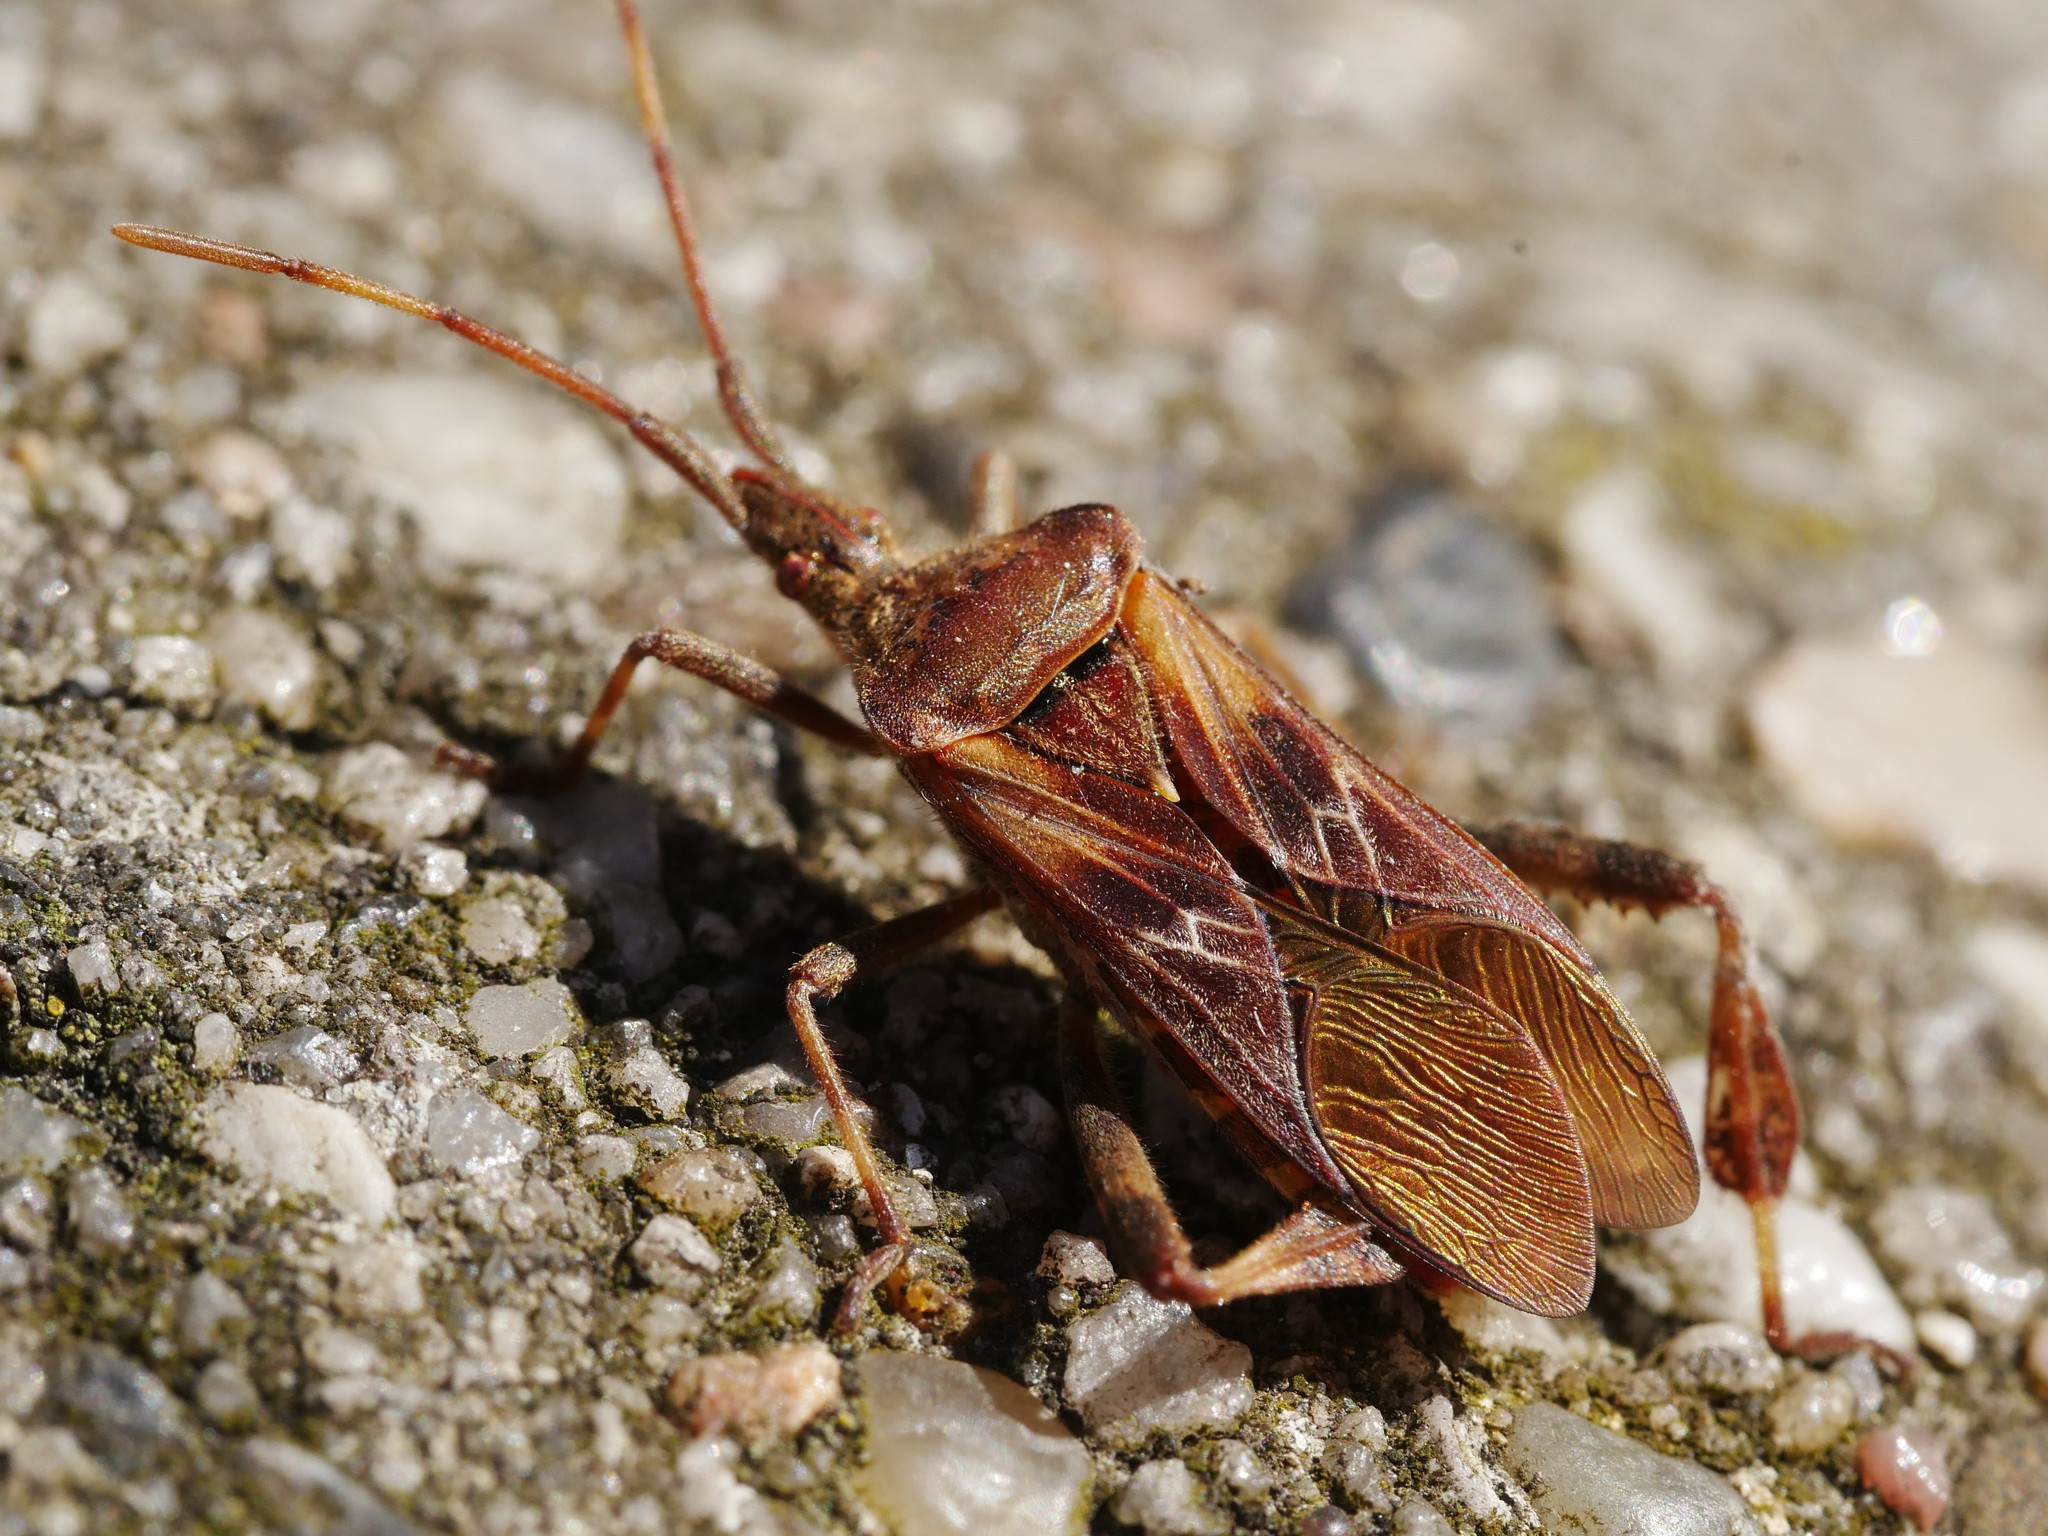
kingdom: Animalia
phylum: Arthropoda
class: Insecta
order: Hemiptera
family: Coreidae
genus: Leptoglossus
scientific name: Leptoglossus occidentalis
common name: Western conifer-seed bug
